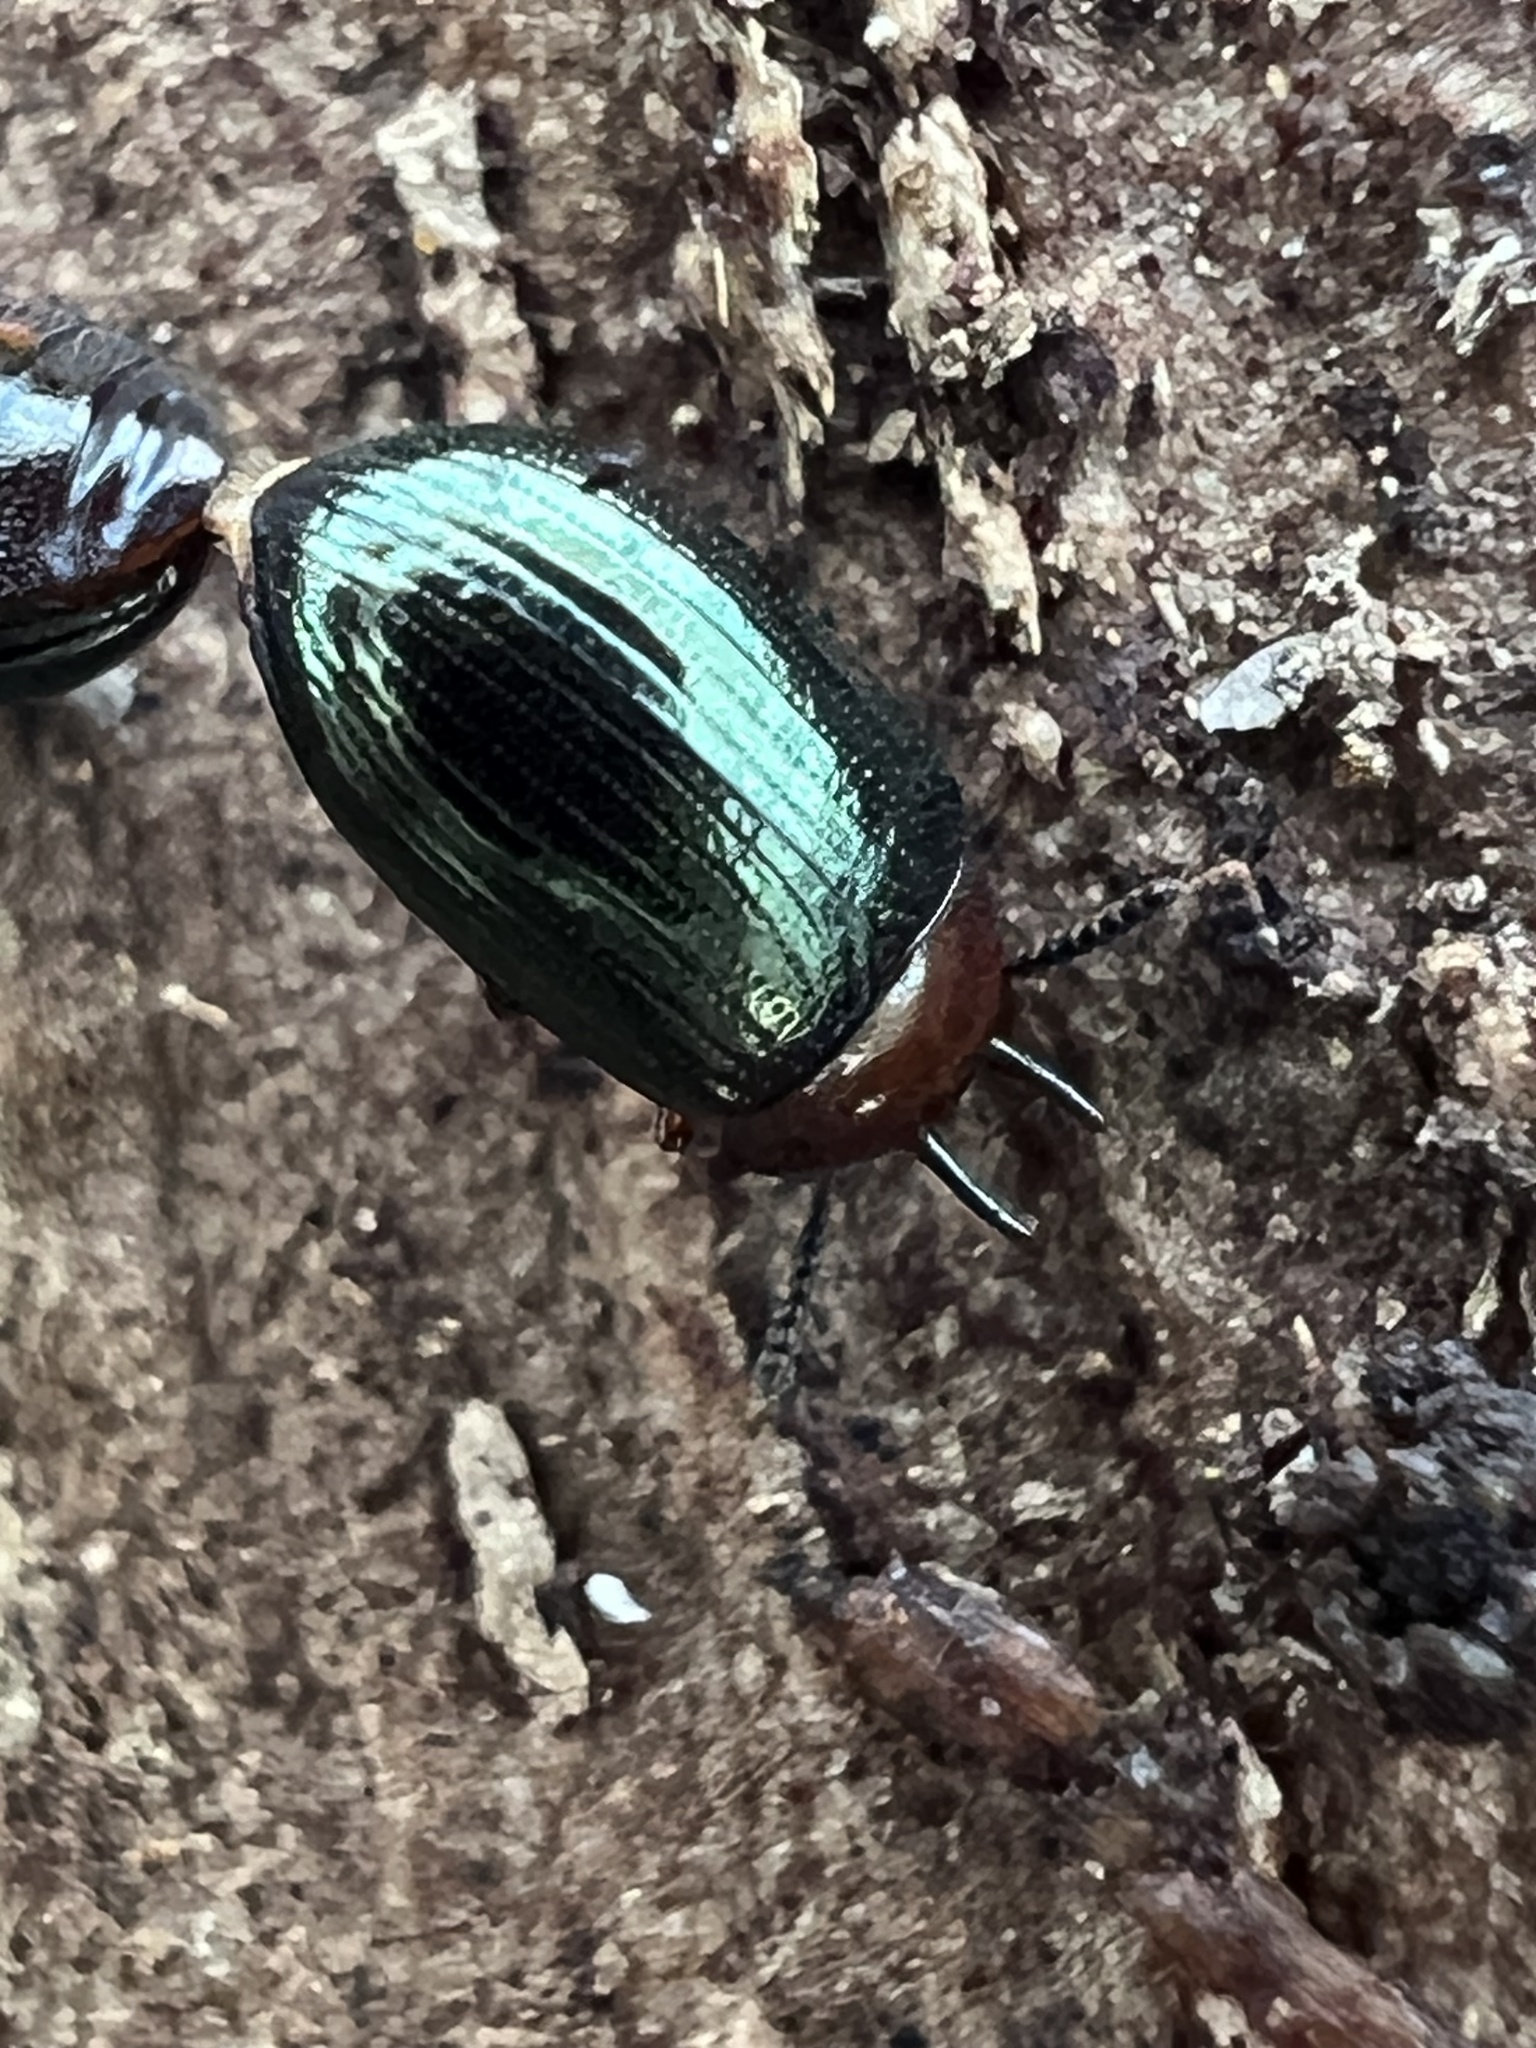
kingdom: Animalia
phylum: Arthropoda
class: Insecta
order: Coleoptera
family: Tenebrionidae
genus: Neomida
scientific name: Neomida bicornis
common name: Two-horned darkling beetle
